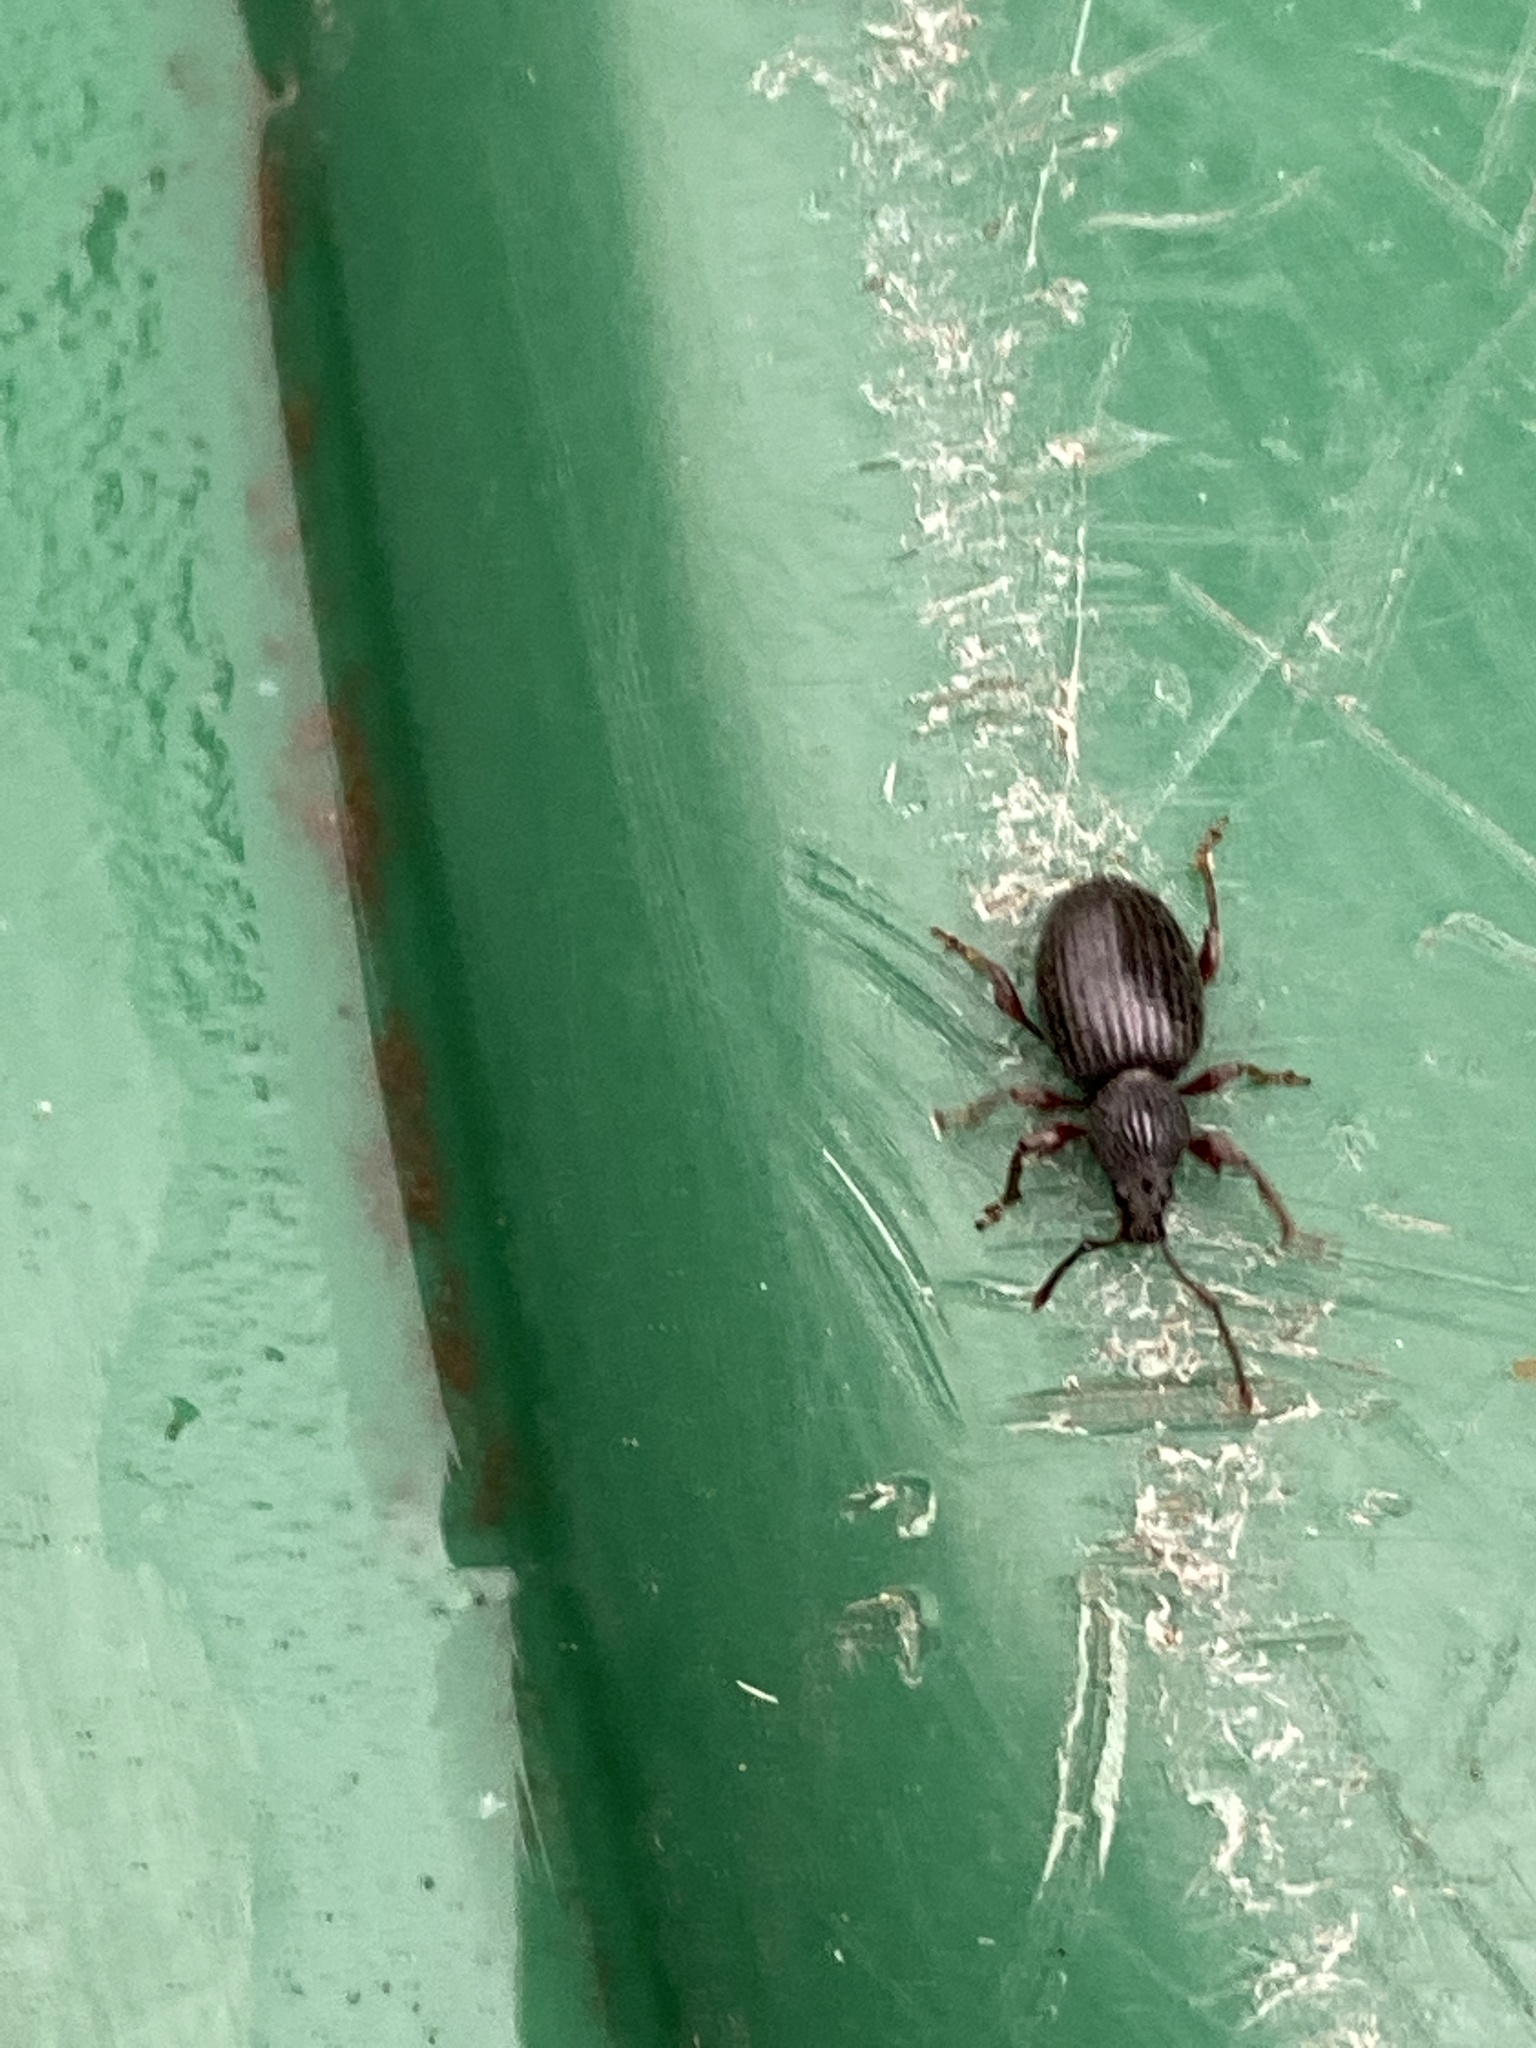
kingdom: Animalia
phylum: Arthropoda
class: Insecta
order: Coleoptera
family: Curculionidae
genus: Otiorhynchus
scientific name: Otiorhynchus ovatus
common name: Strawberry root weevil
